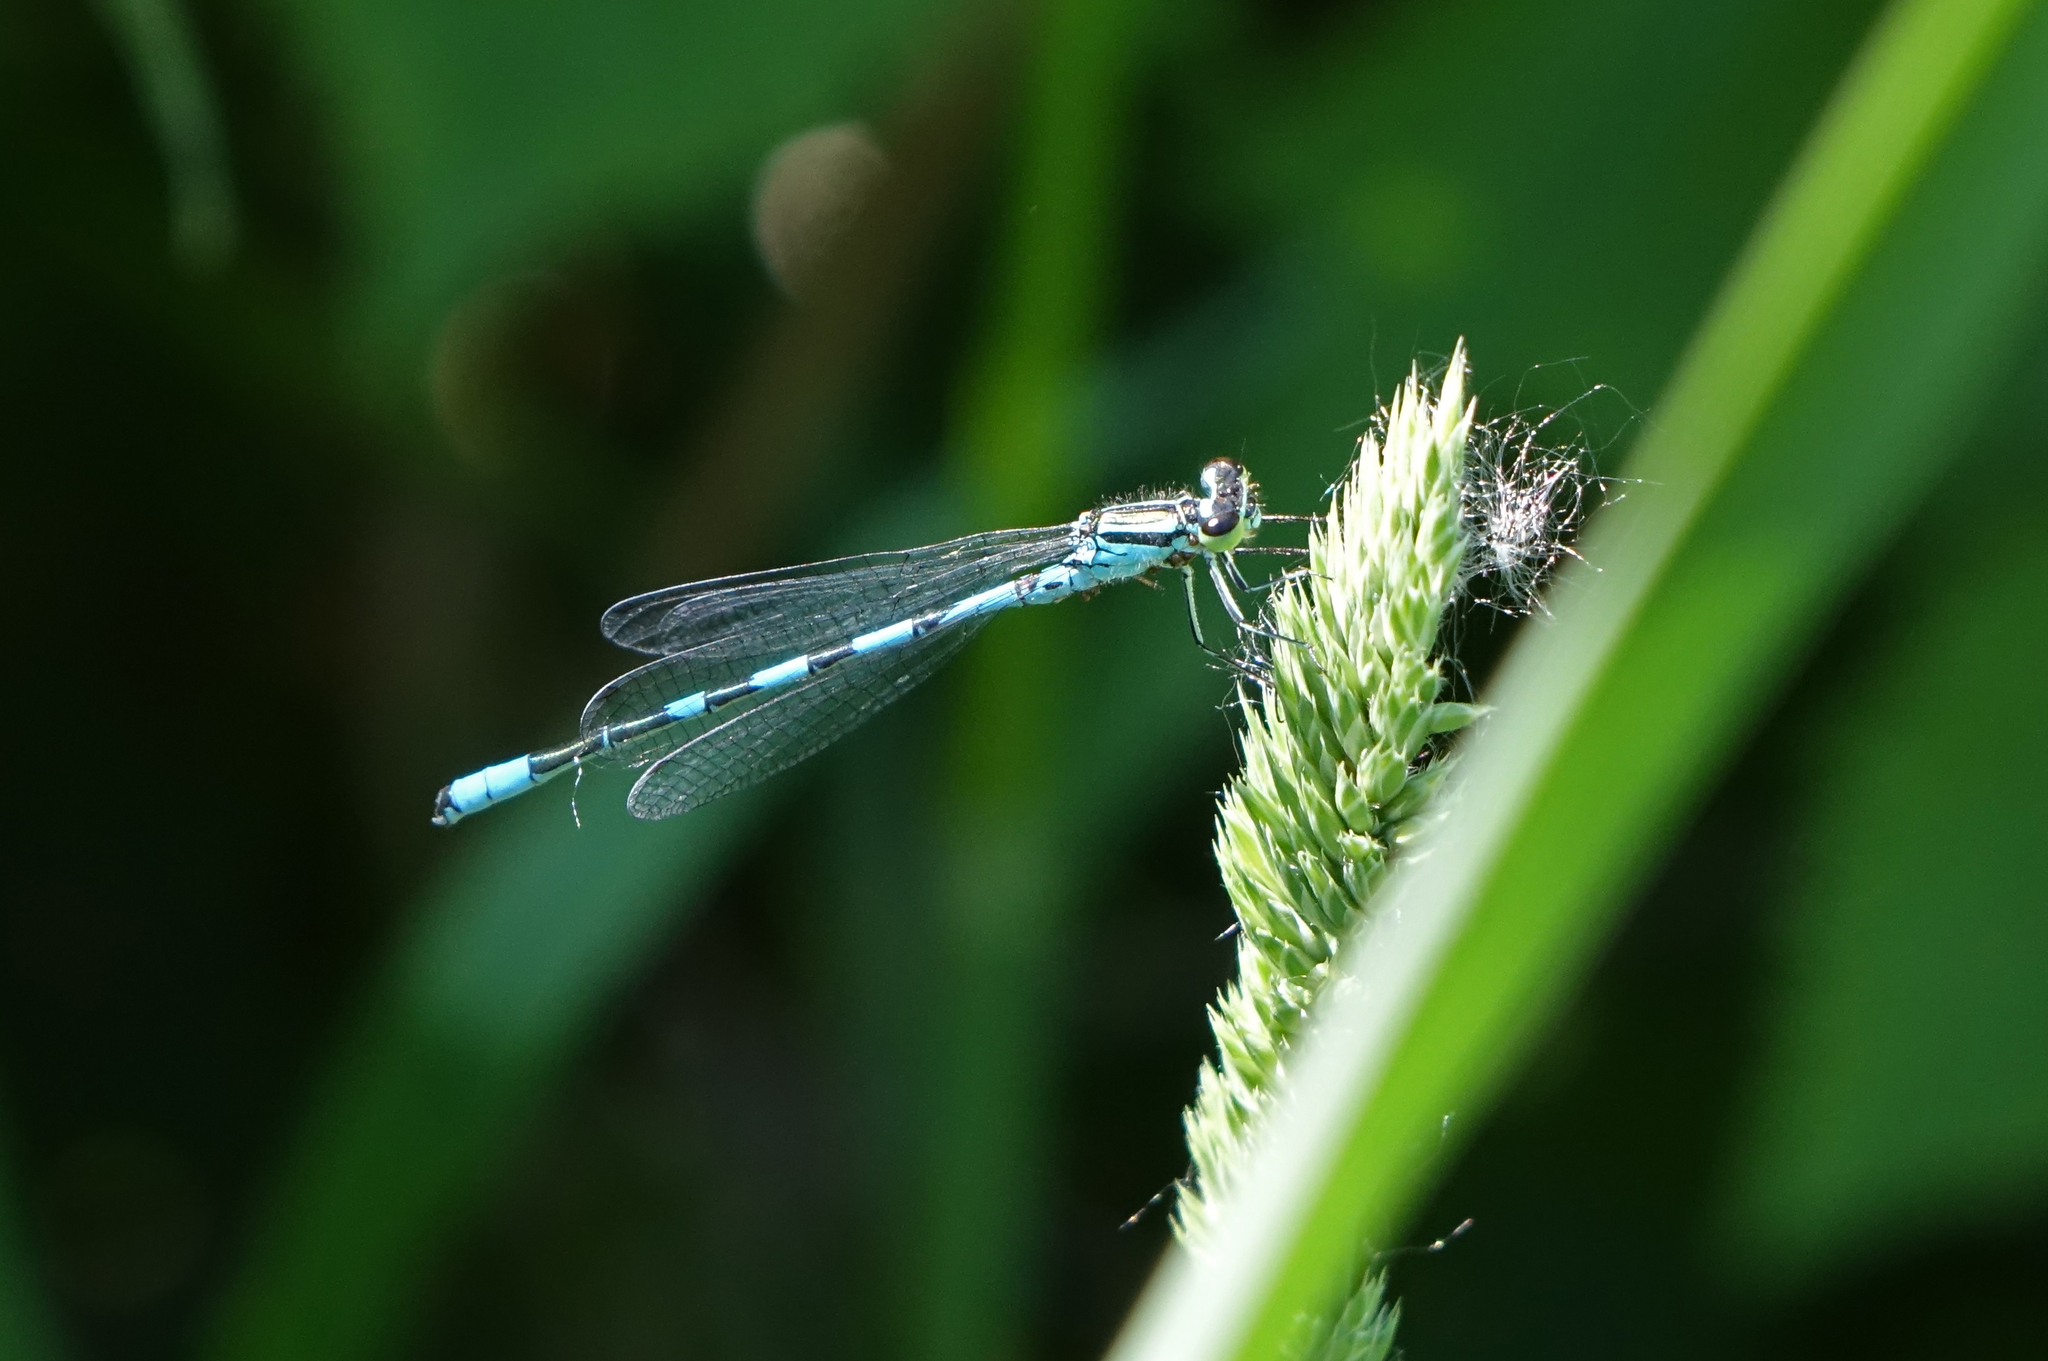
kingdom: Animalia
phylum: Arthropoda
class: Insecta
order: Odonata
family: Coenagrionidae
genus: Coenagrion
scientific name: Coenagrion hastulatum
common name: Spearhead bluet
